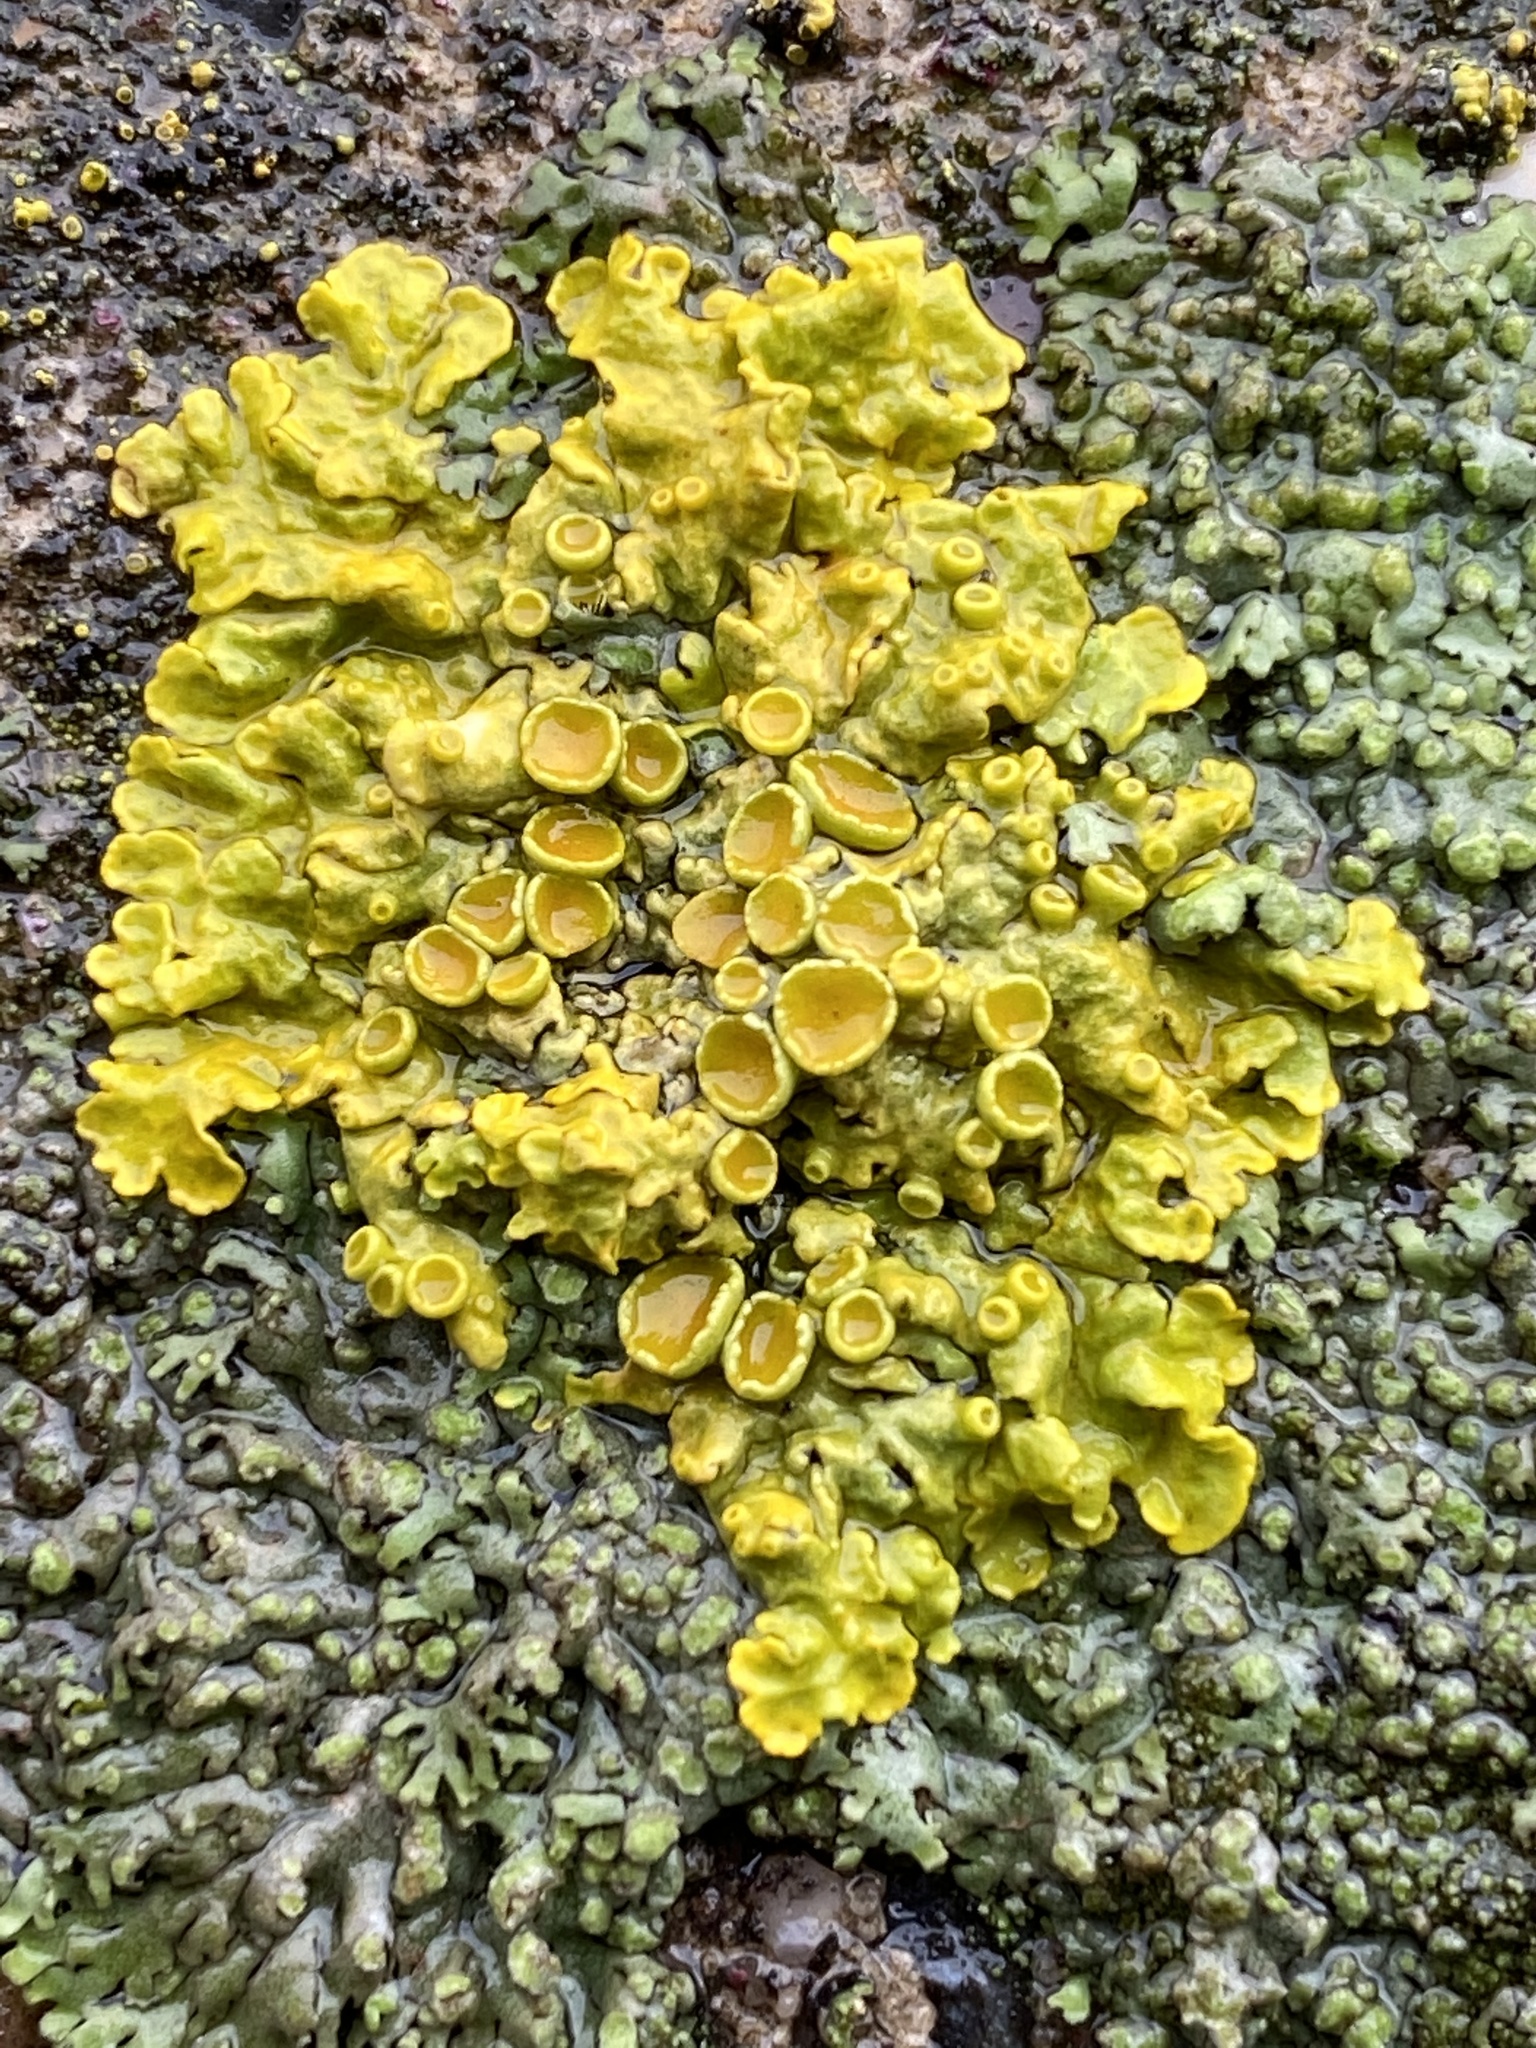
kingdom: Fungi
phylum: Ascomycota
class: Lecanoromycetes
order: Teloschistales
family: Teloschistaceae
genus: Xanthoria
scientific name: Xanthoria parietina
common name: Common orange lichen
